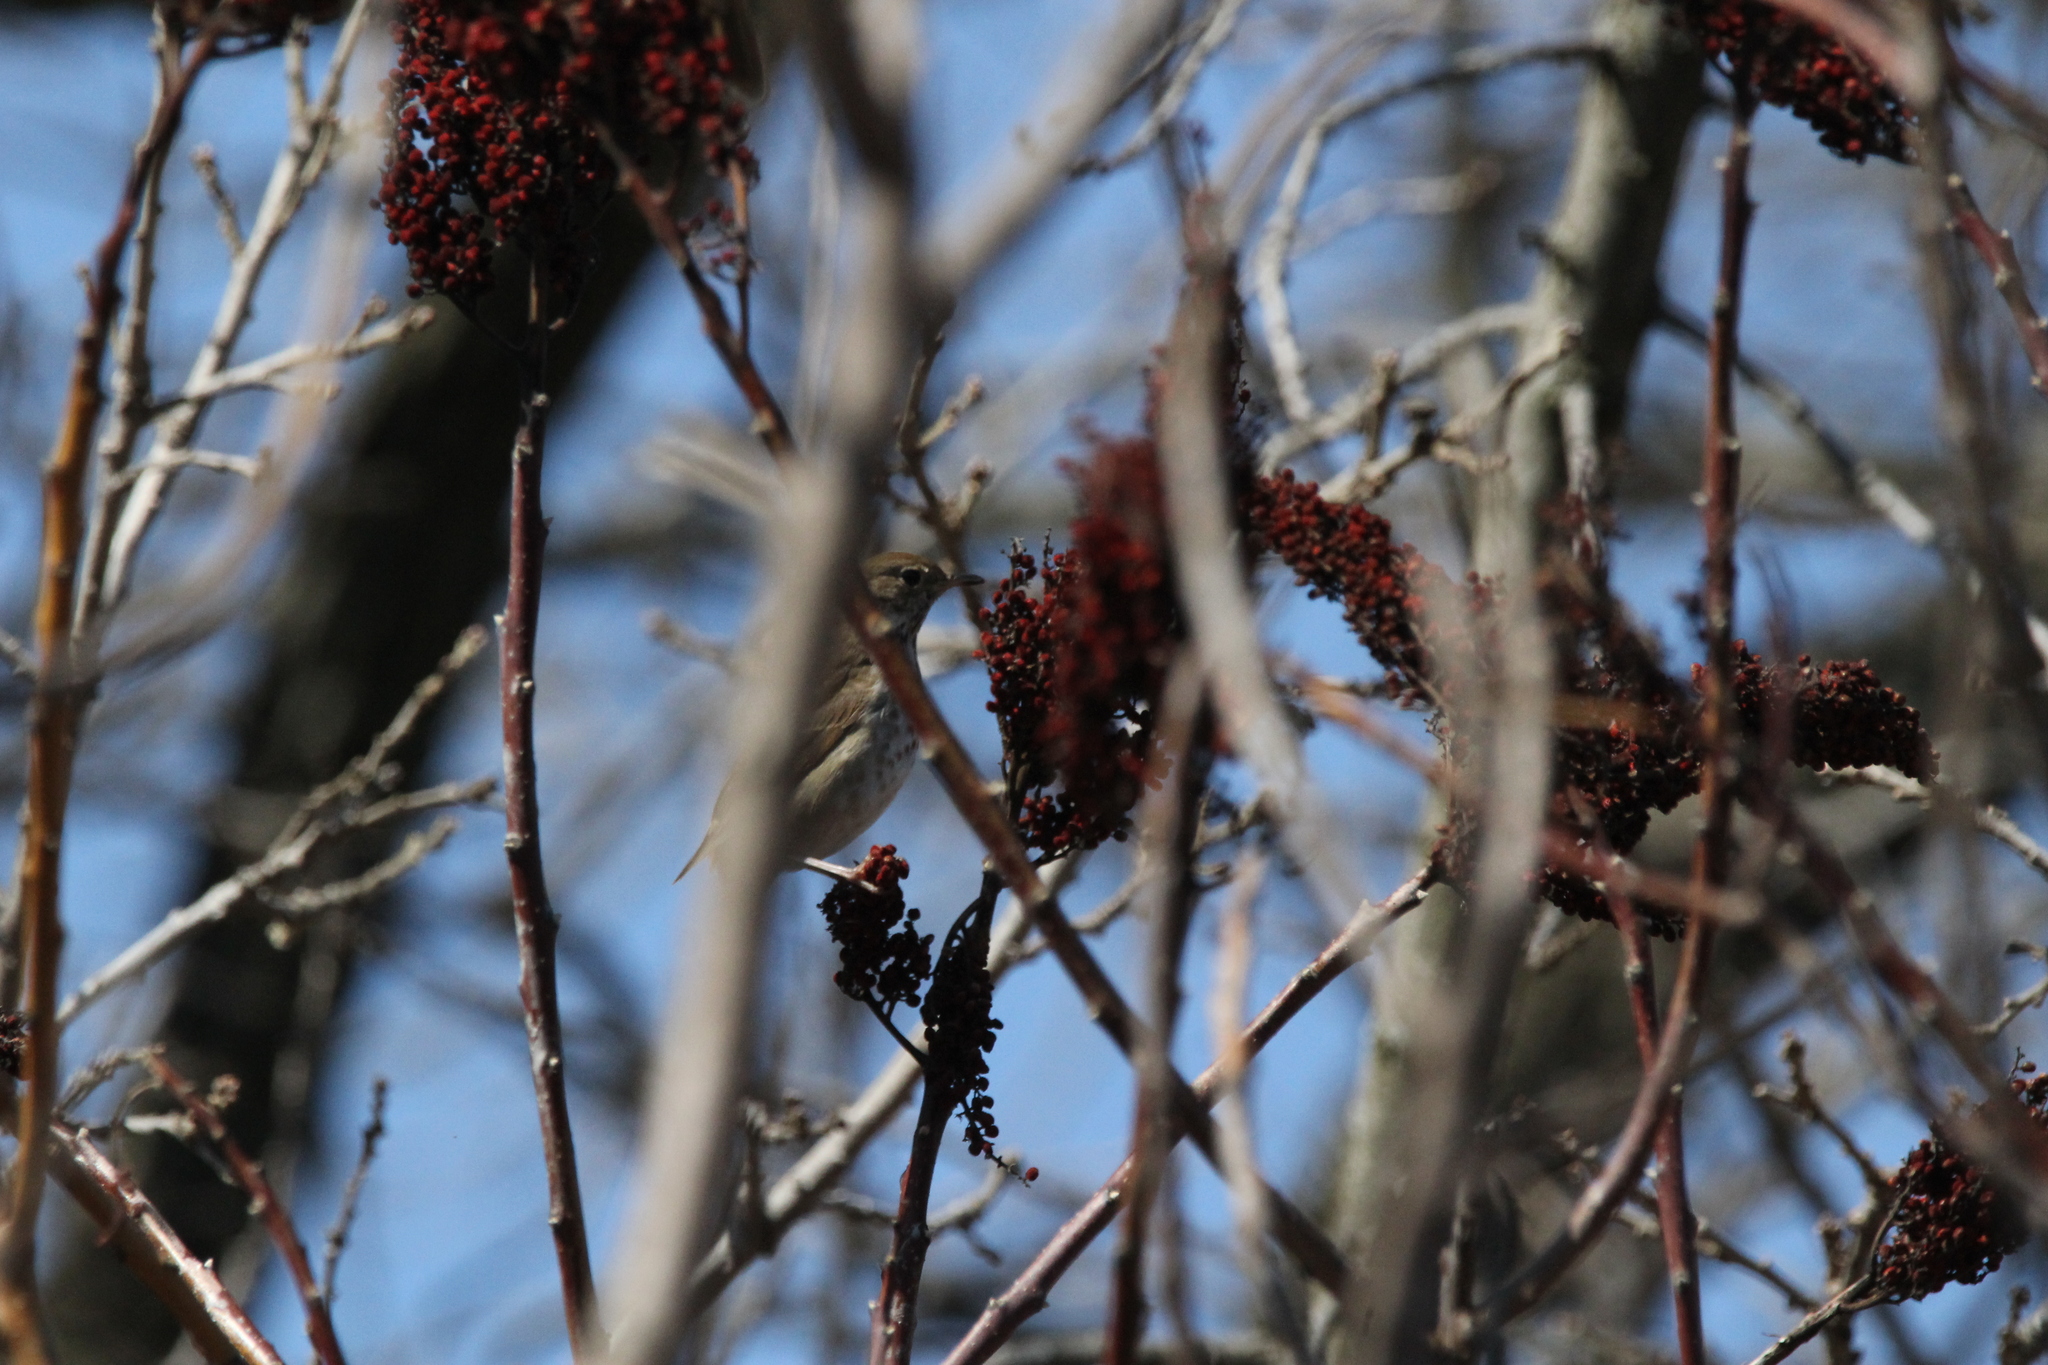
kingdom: Plantae
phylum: Tracheophyta
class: Magnoliopsida
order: Sapindales
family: Anacardiaceae
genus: Rhus
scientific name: Rhus glabra
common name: Scarlet sumac
